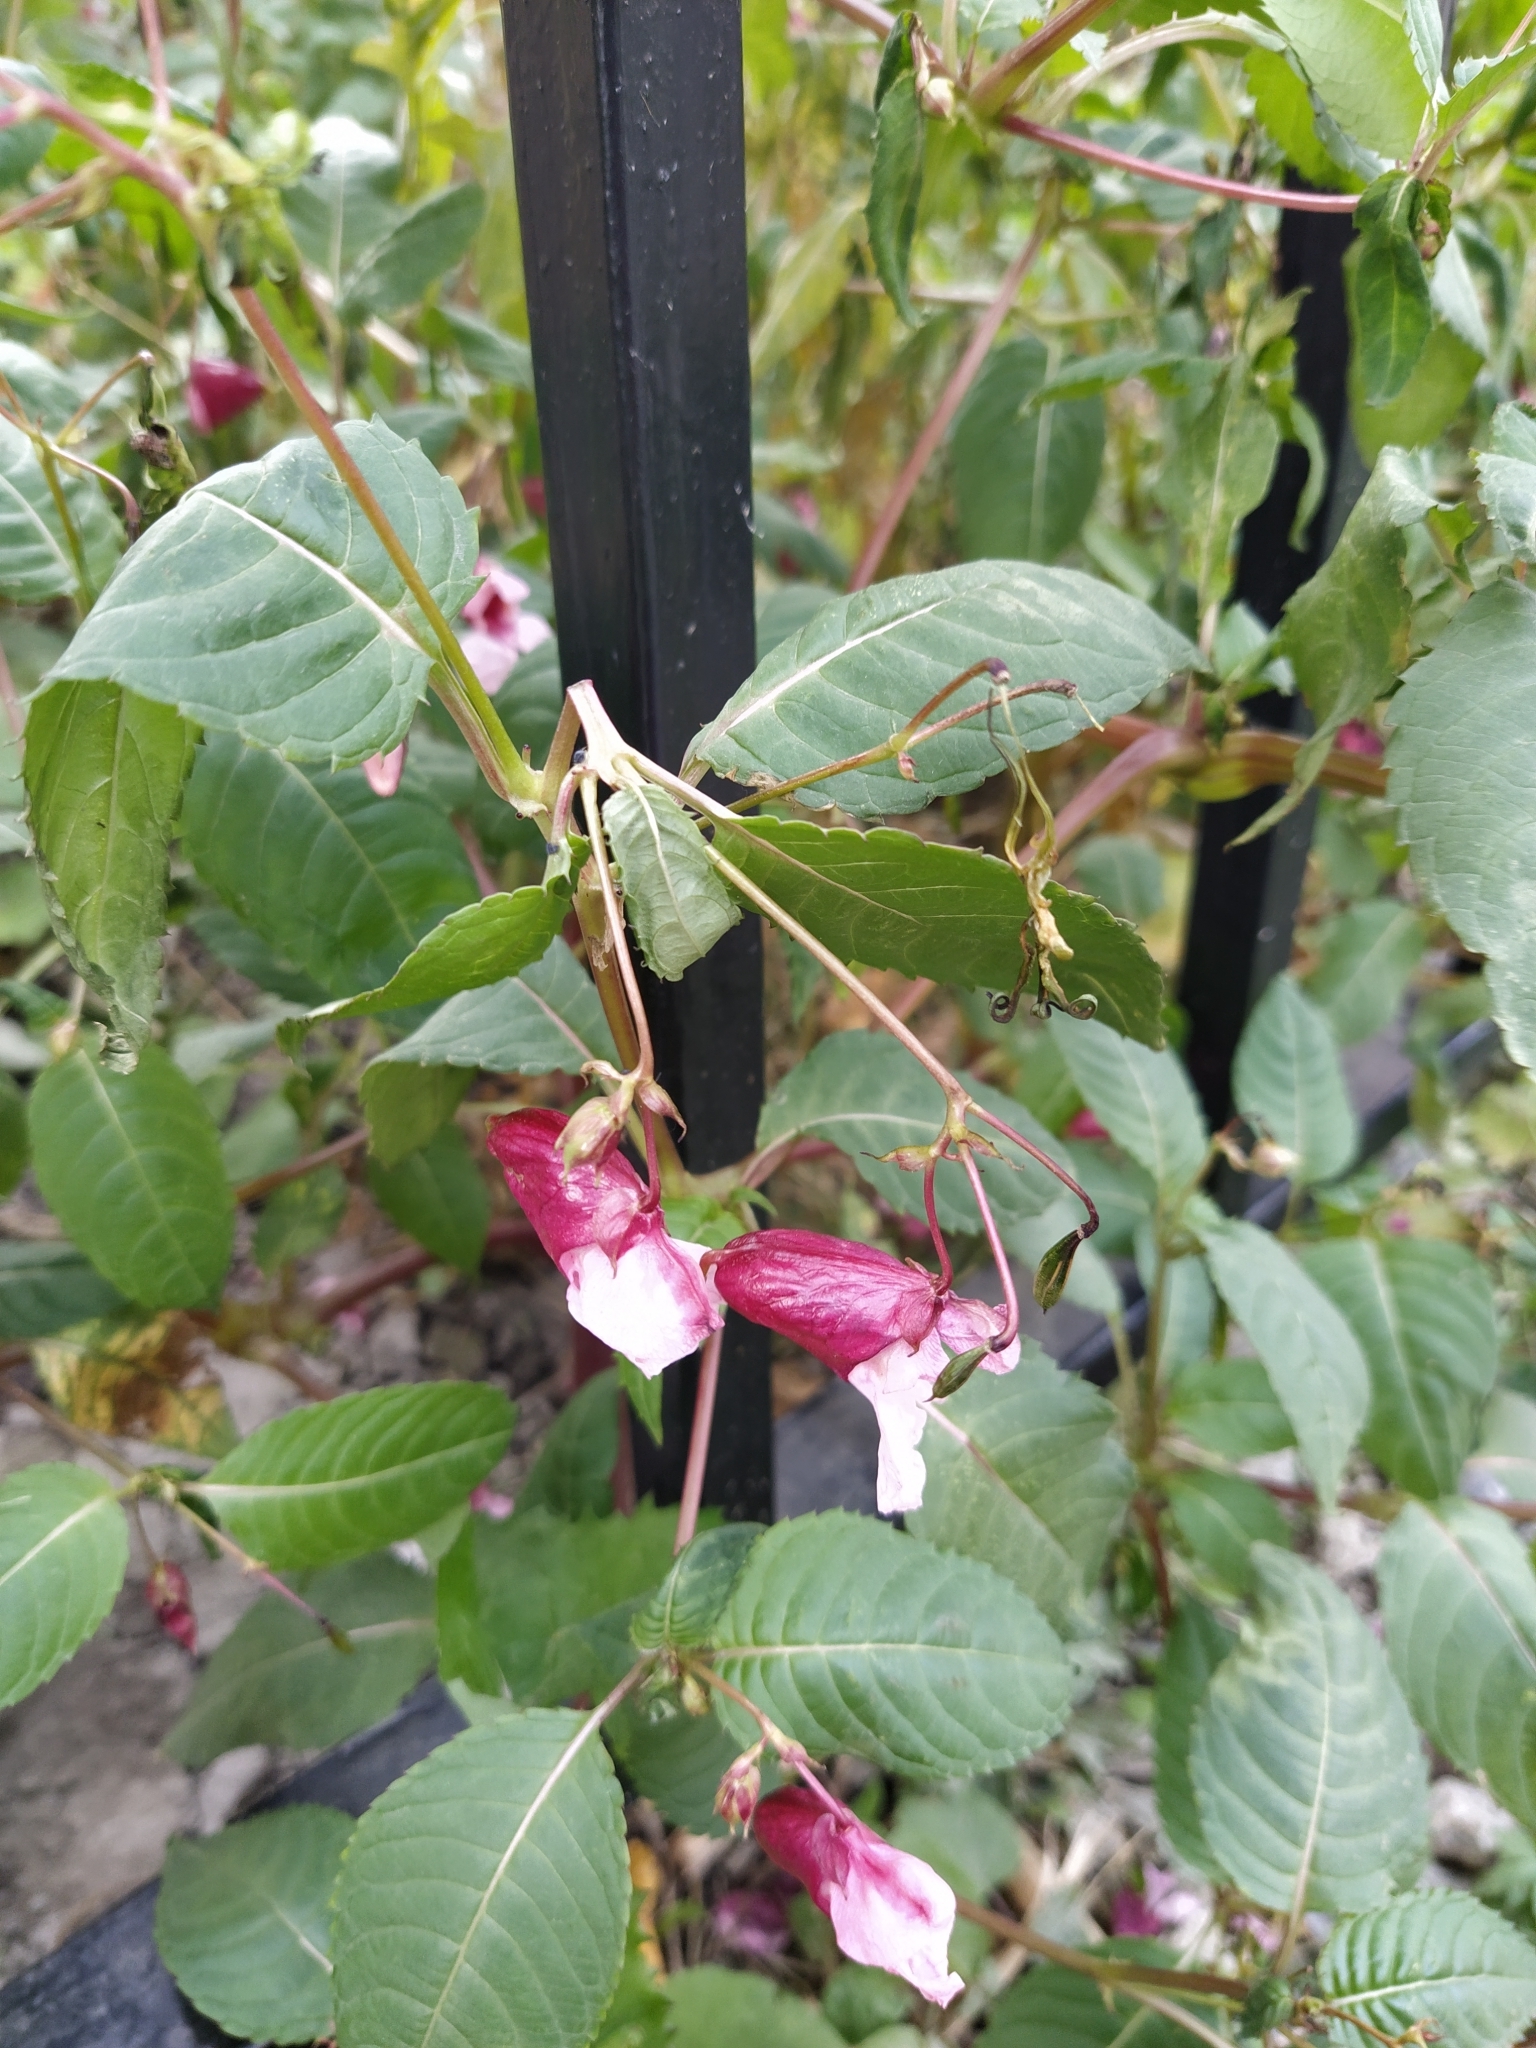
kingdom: Plantae
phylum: Tracheophyta
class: Magnoliopsida
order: Ericales
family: Balsaminaceae
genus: Impatiens
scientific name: Impatiens glandulifera
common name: Himalayan balsam
